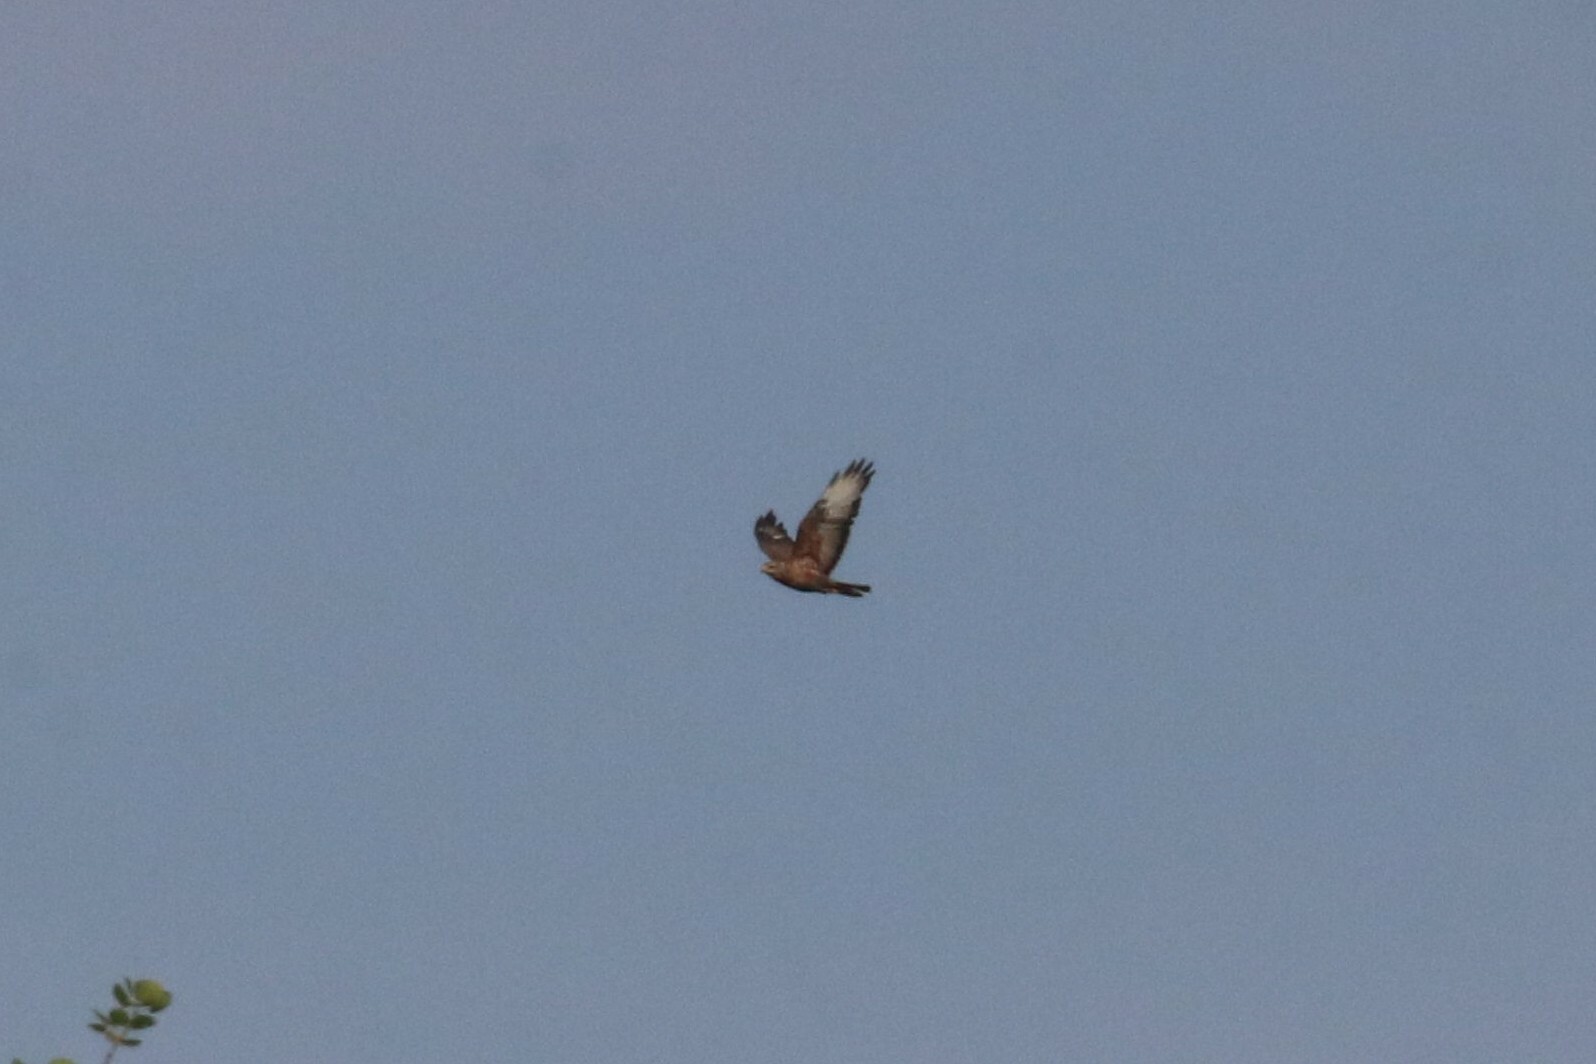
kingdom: Animalia
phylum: Chordata
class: Aves
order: Accipitriformes
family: Accipitridae
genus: Buteo
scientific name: Buteo buteo
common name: Common buzzard
